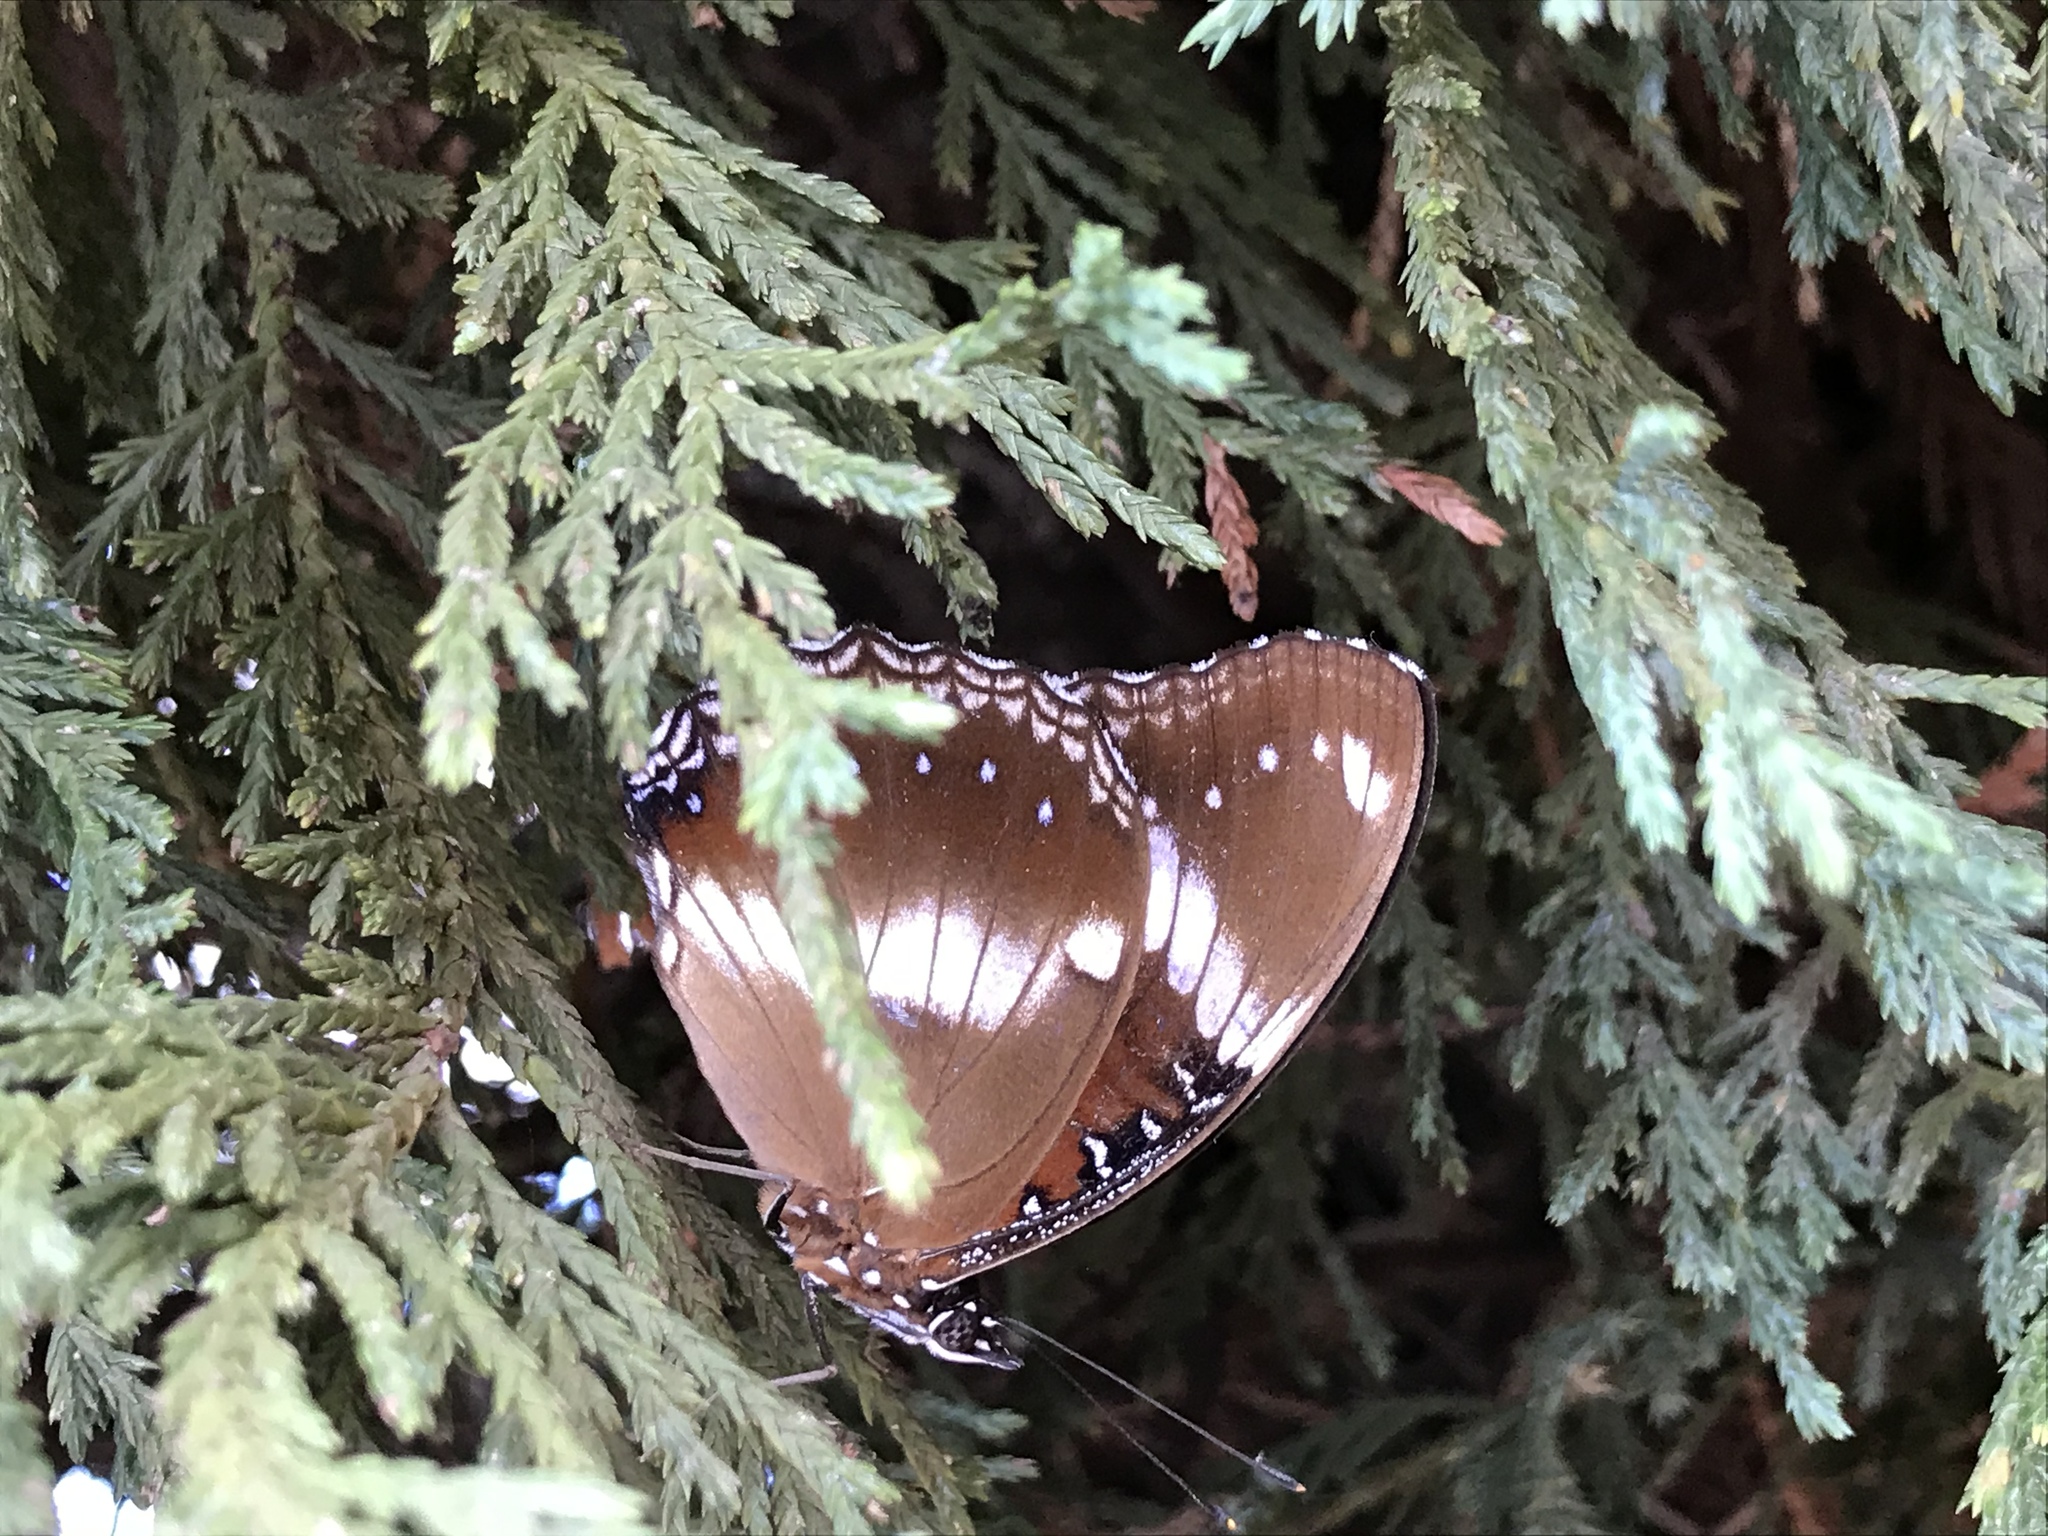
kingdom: Animalia
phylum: Arthropoda
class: Insecta
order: Lepidoptera
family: Nymphalidae
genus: Hypolimnas
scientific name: Hypolimnas bolina
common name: Great eggfly
